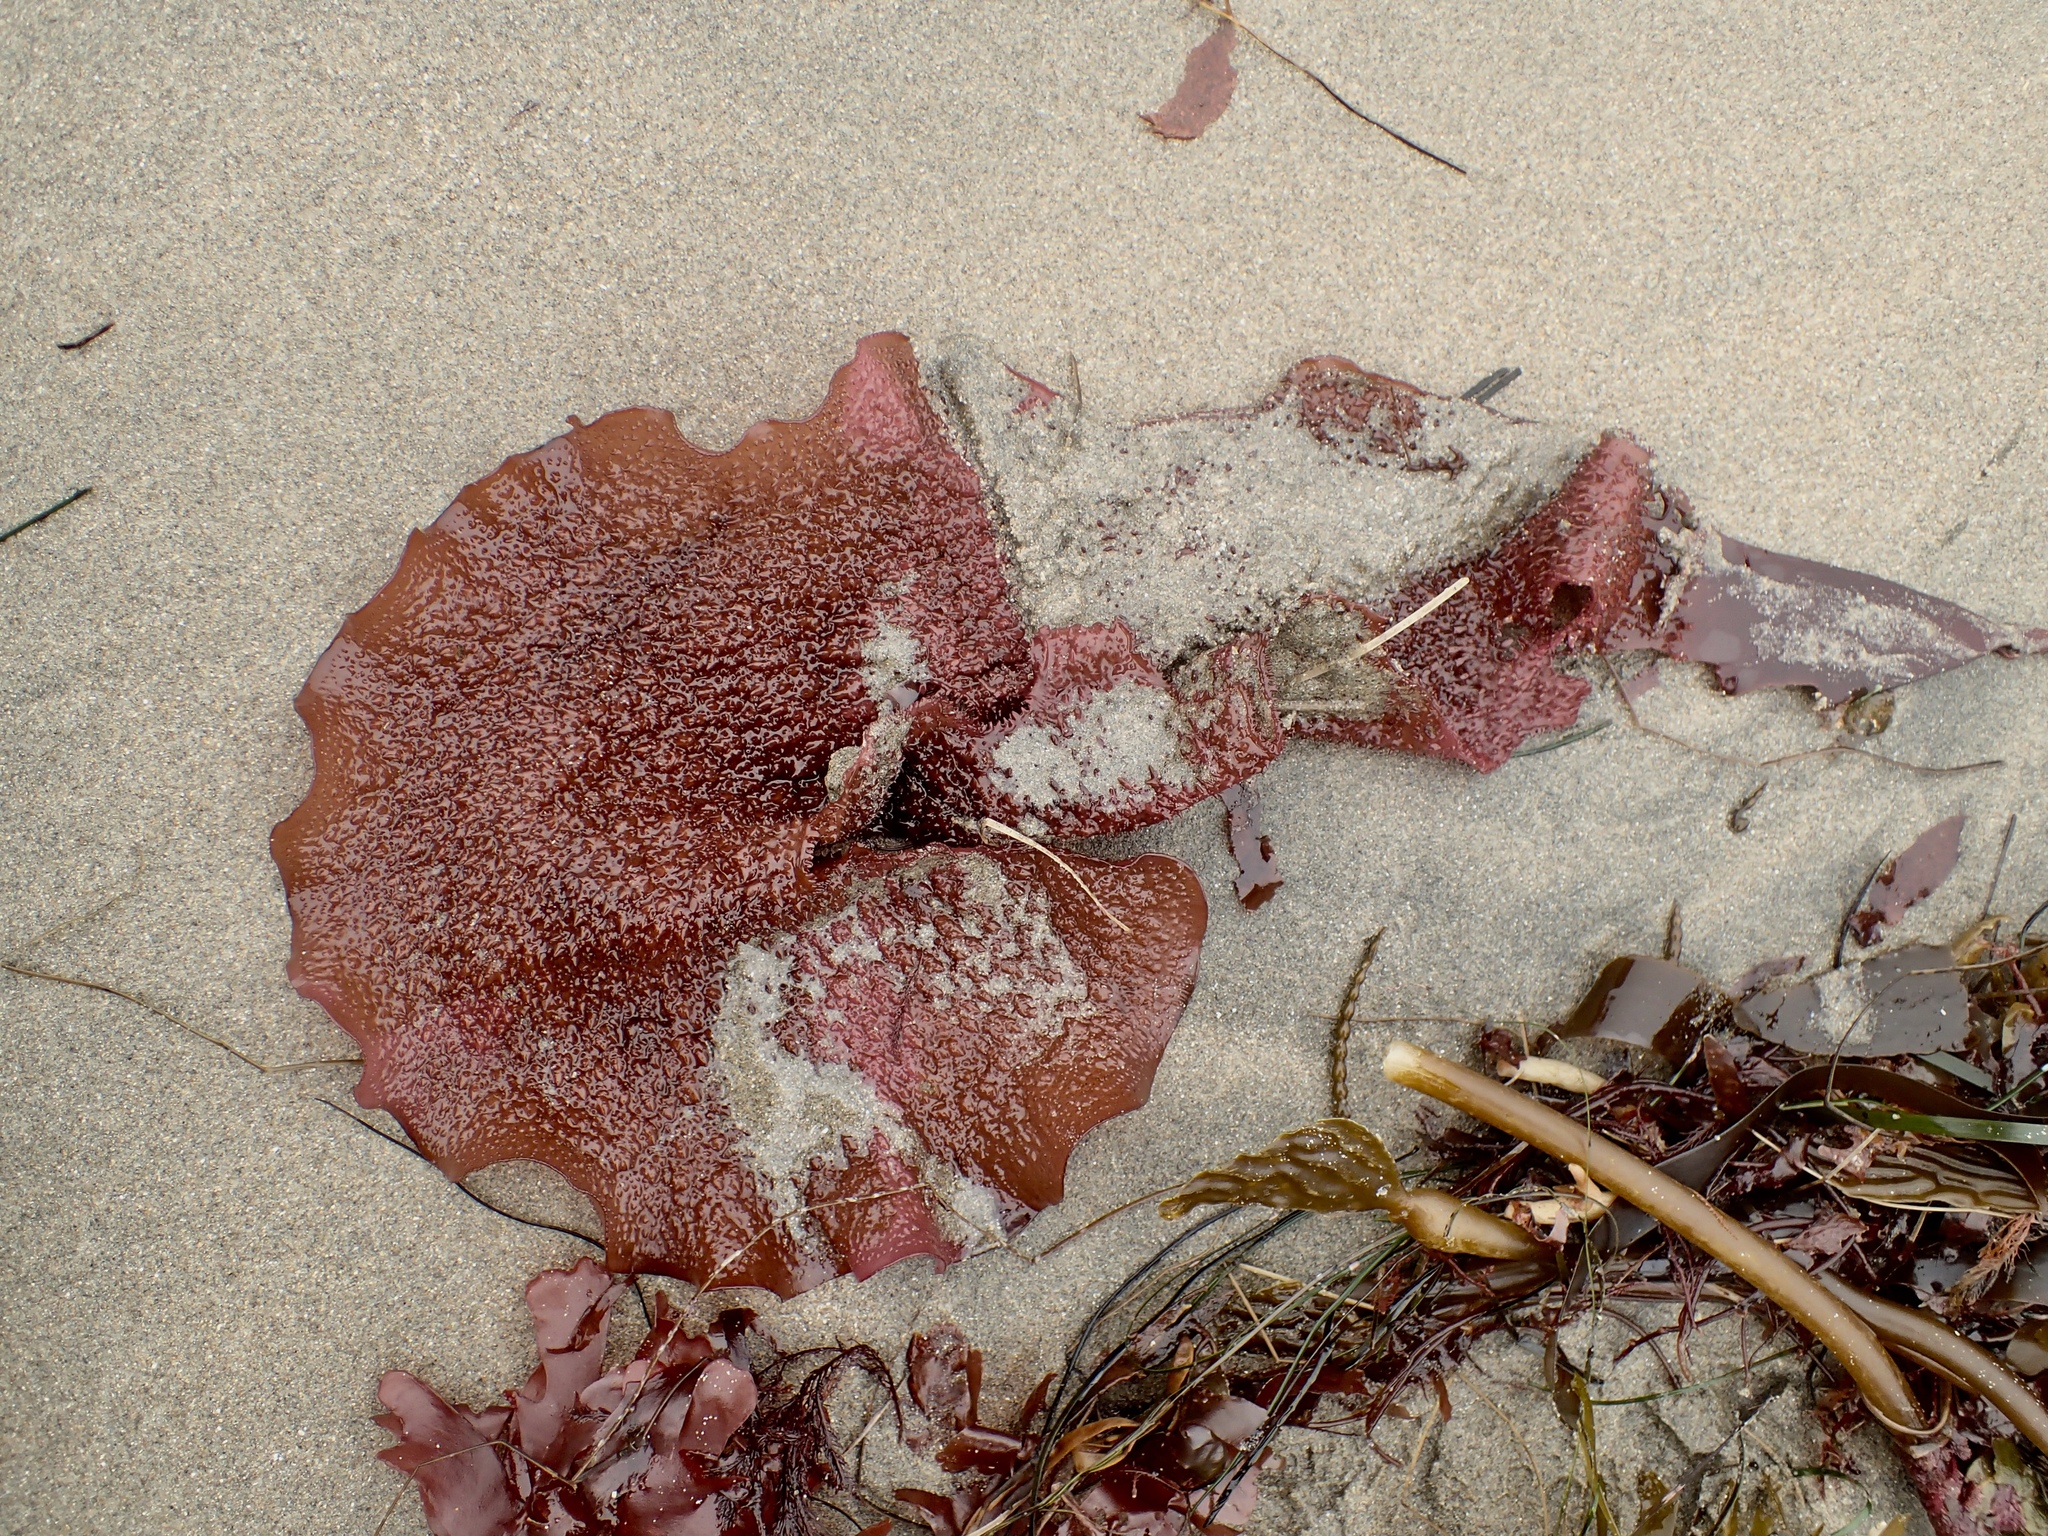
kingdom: Plantae
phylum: Rhodophyta
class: Florideophyceae
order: Gigartinales
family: Gigartinaceae
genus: Chondracanthus
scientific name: Chondracanthus exasperatus
